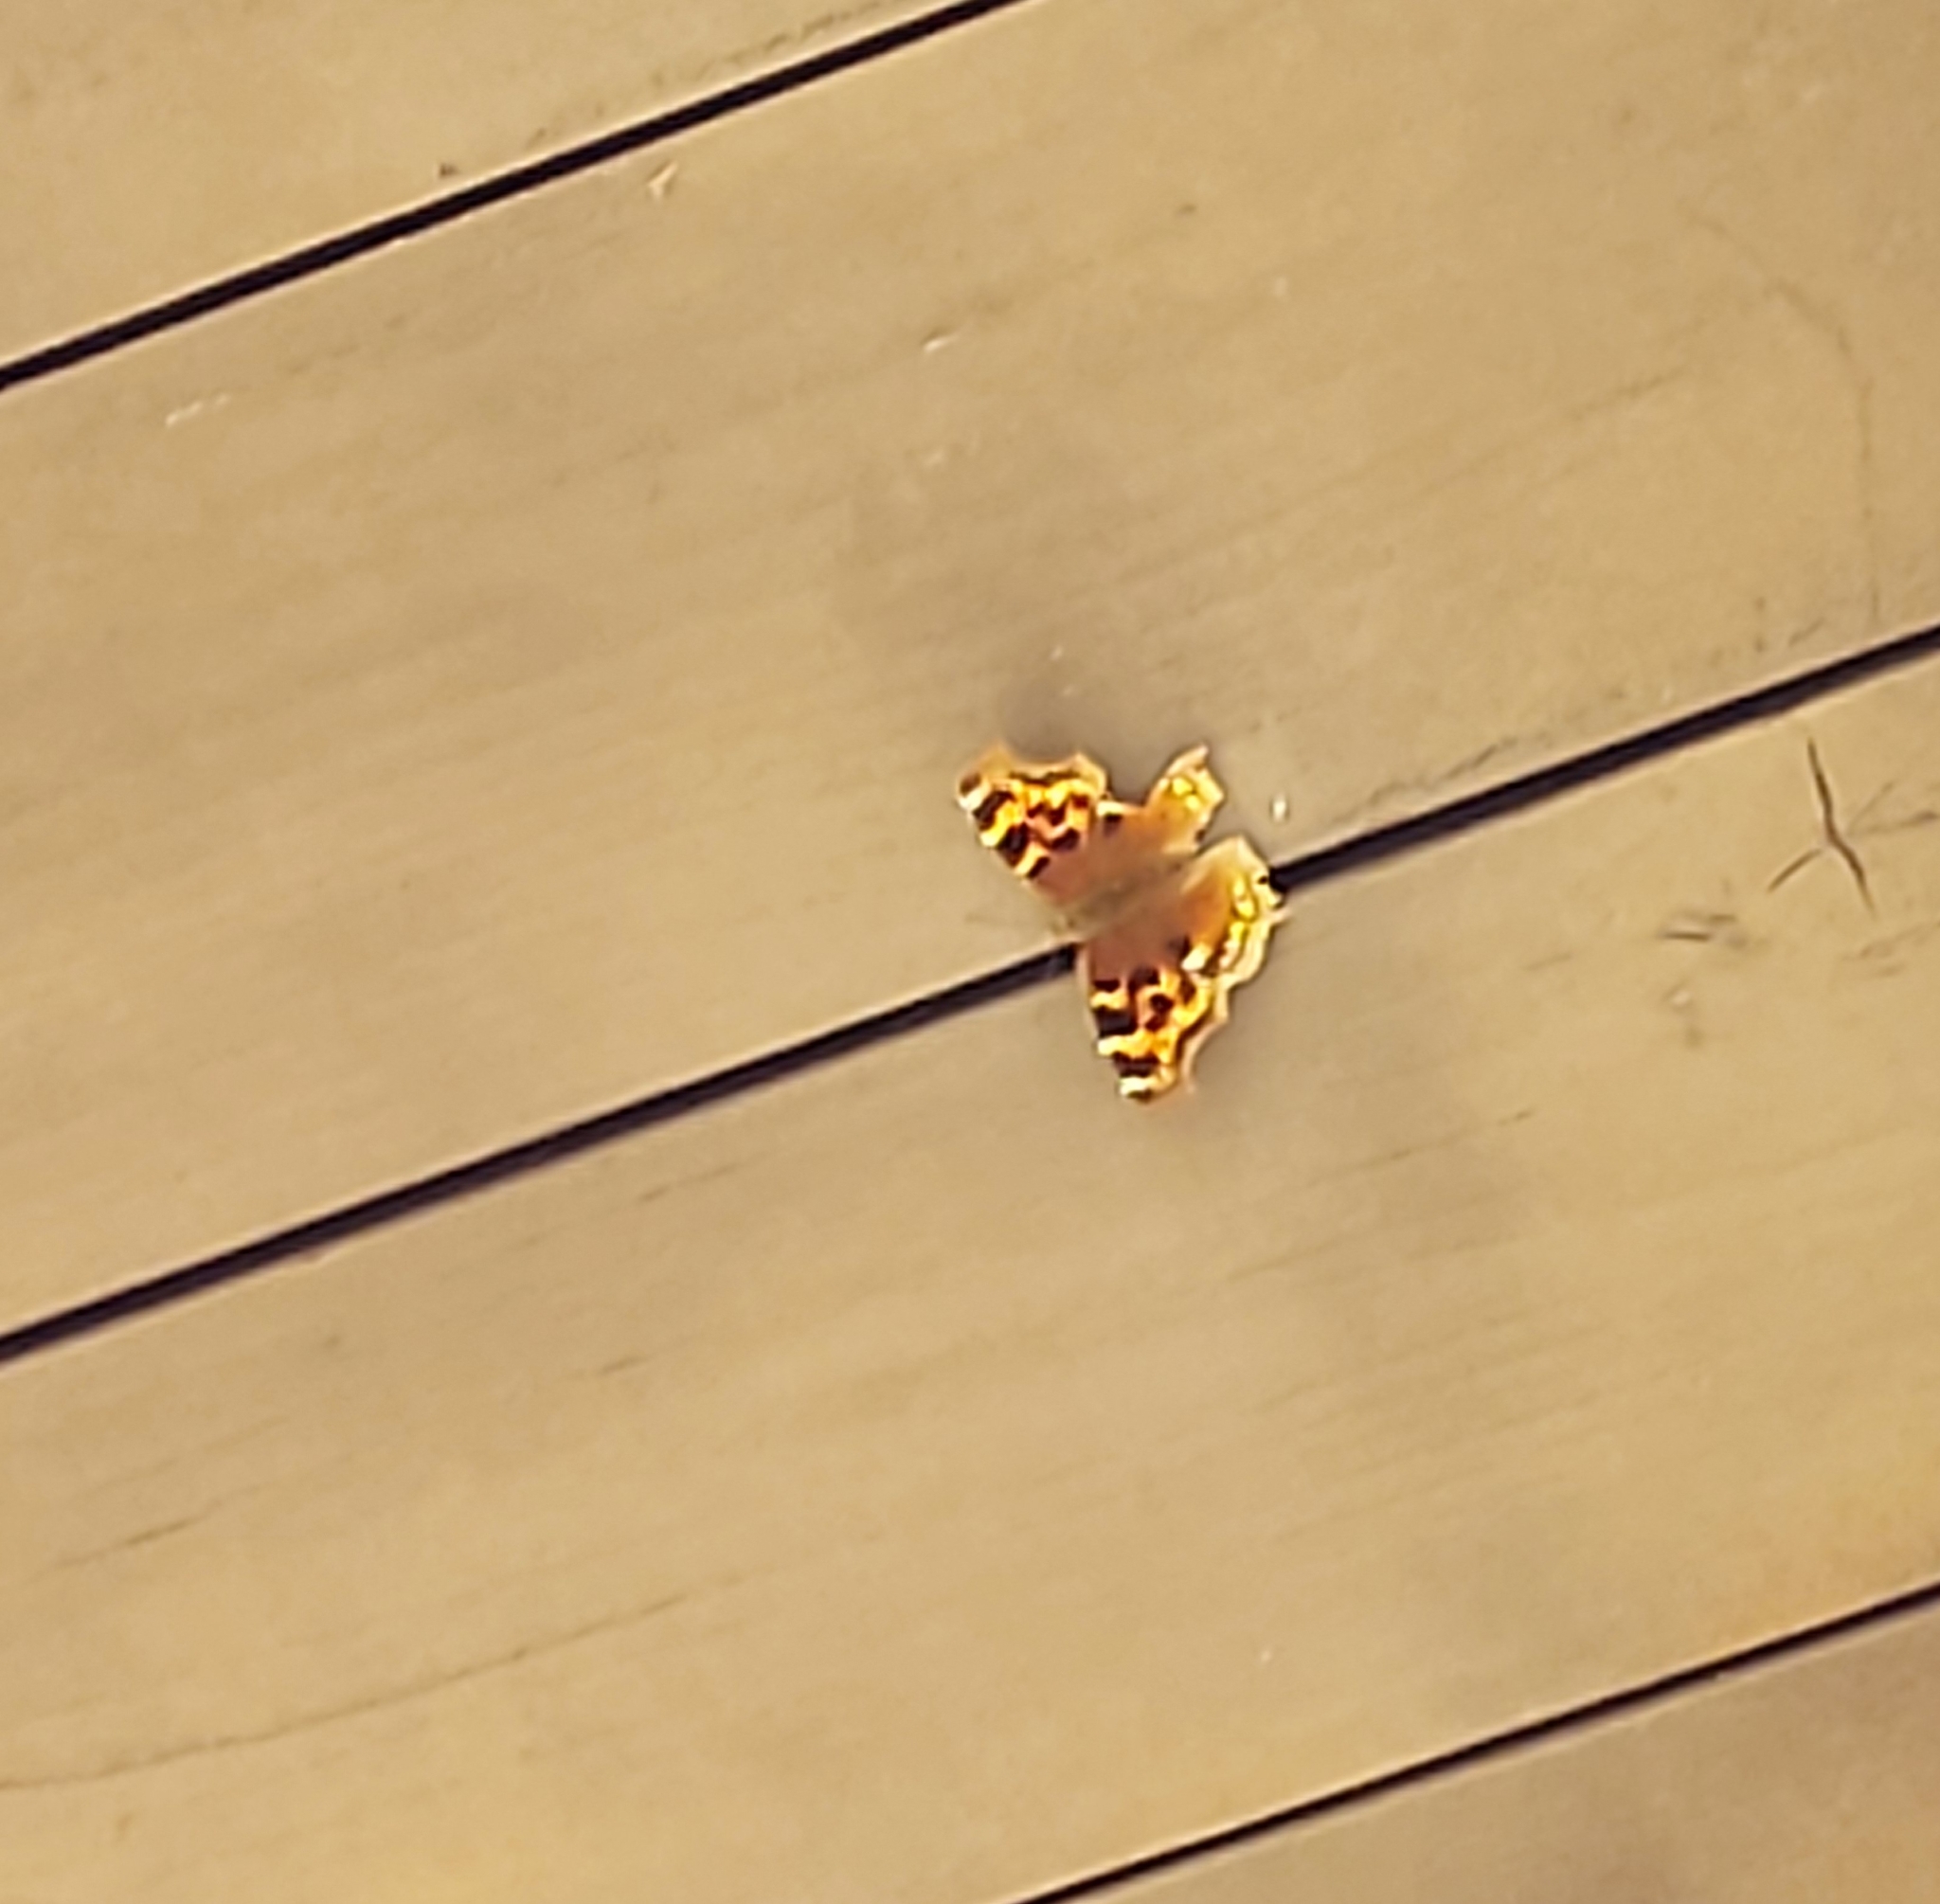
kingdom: Animalia
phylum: Arthropoda
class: Insecta
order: Lepidoptera
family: Nymphalidae
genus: Polygonia
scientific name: Polygonia vaualbum
